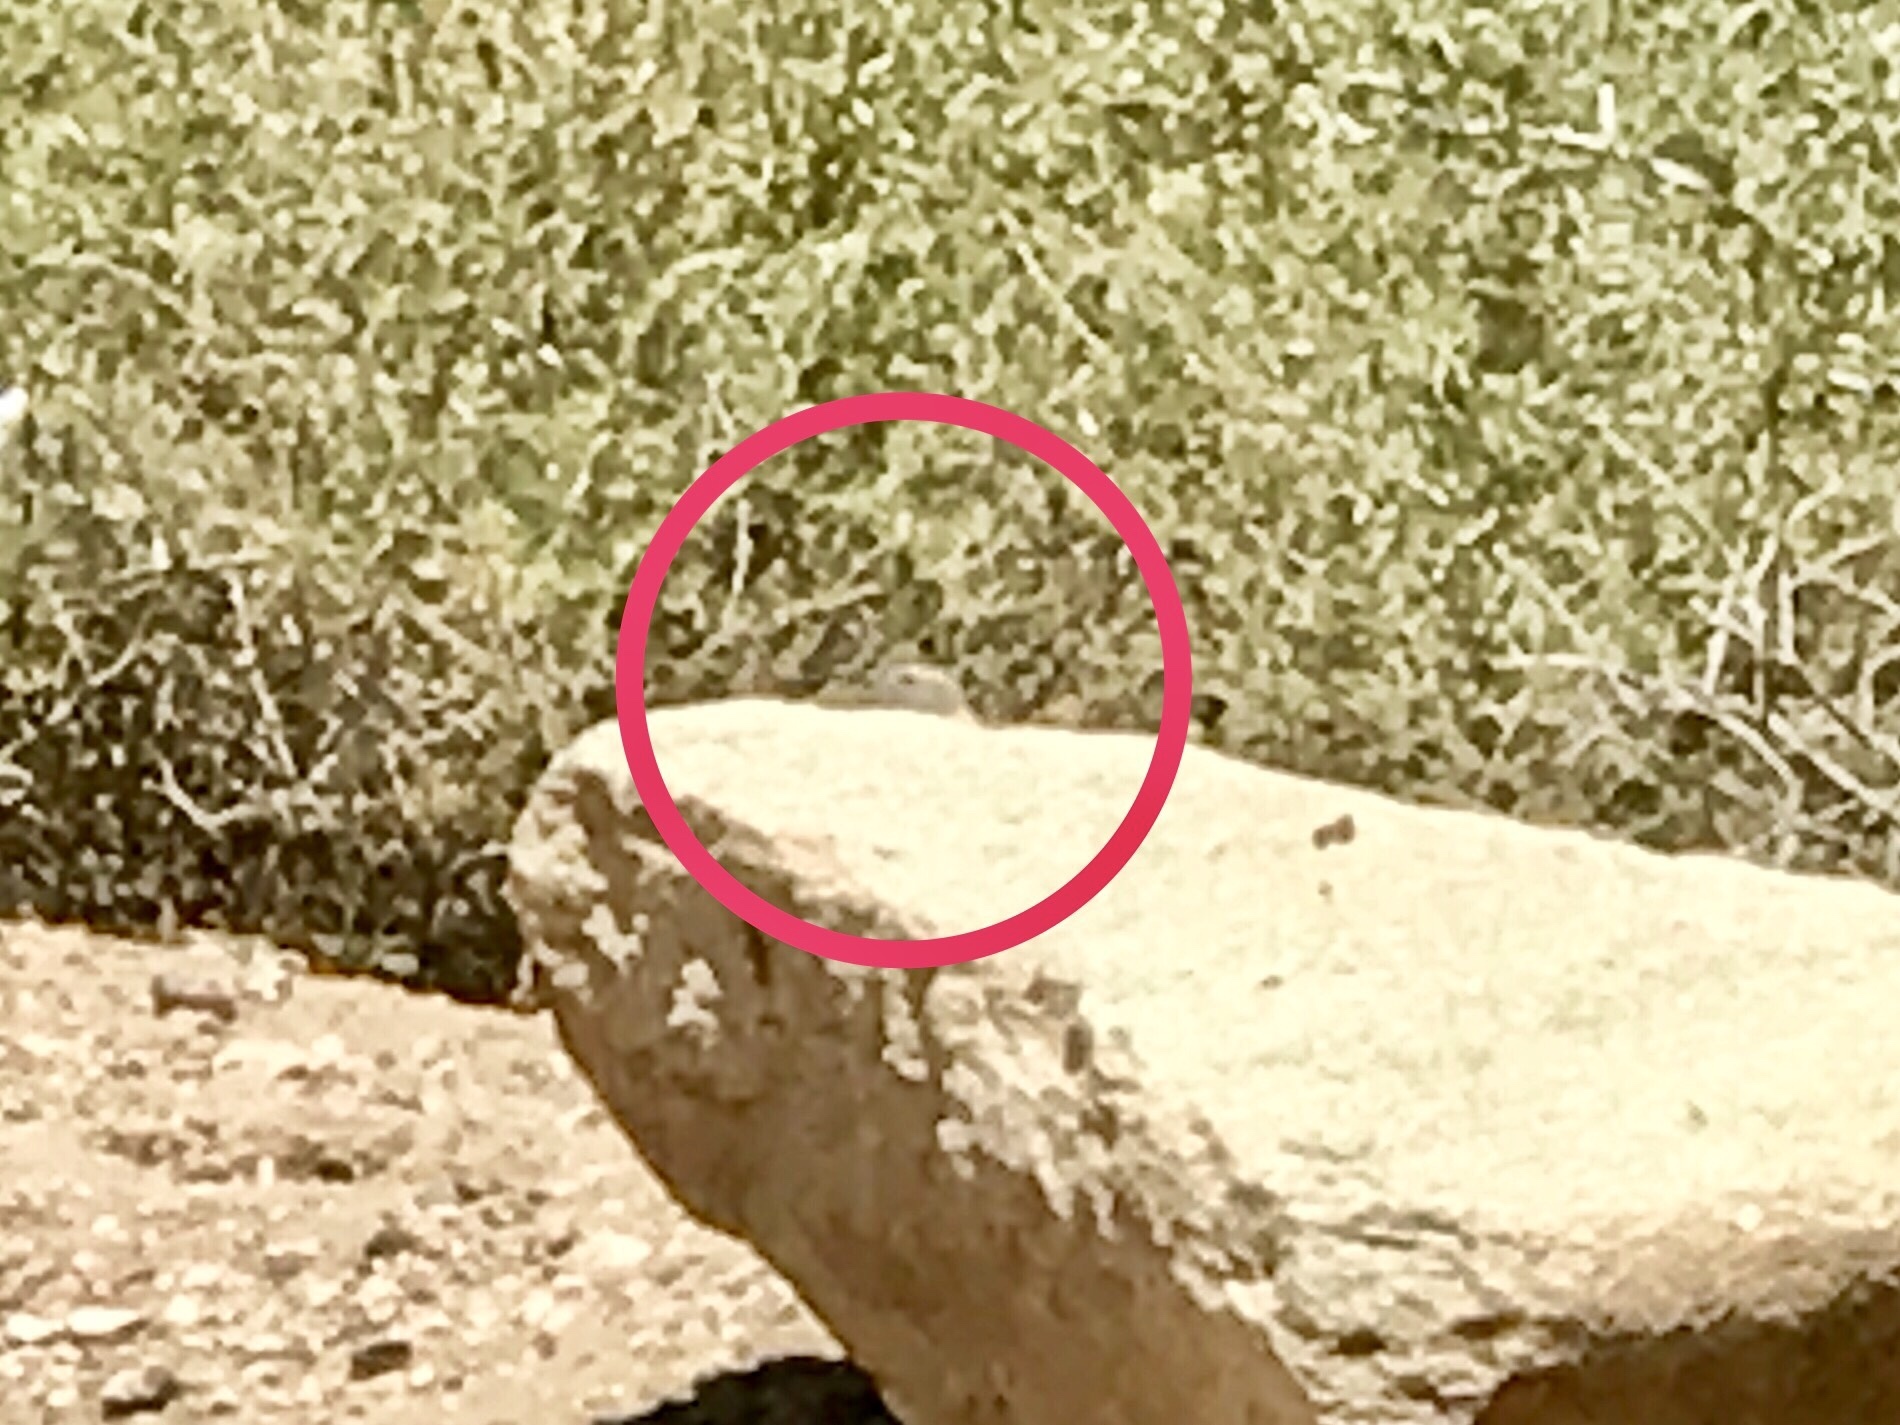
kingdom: Animalia
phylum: Chordata
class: Mammalia
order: Rodentia
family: Sciuridae
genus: Xerospermophilus
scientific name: Xerospermophilus tereticaudus
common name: Round-tailed ground squirrel
